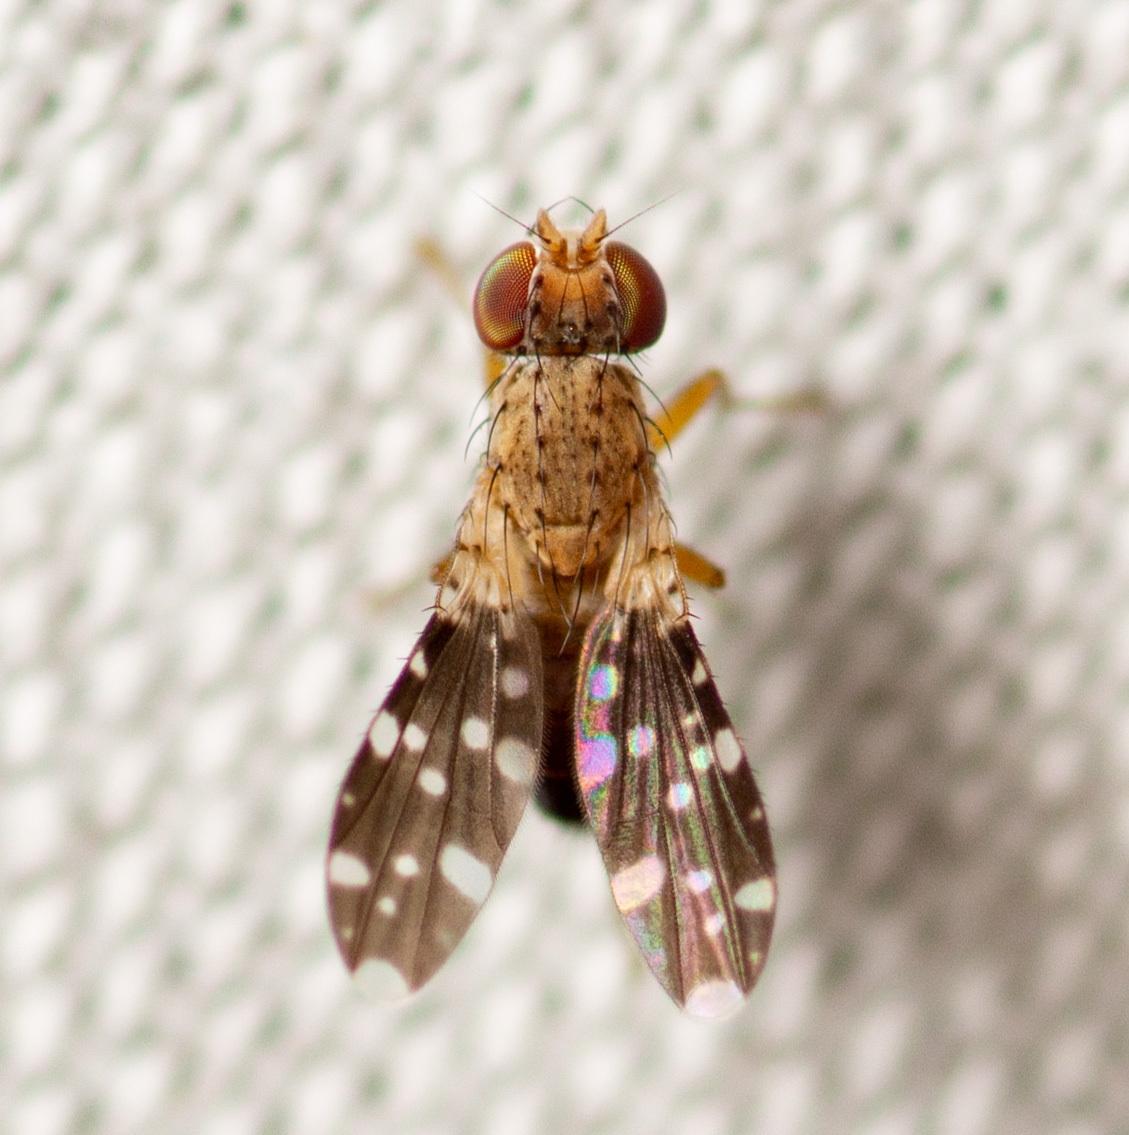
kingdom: Animalia
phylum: Arthropoda
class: Insecta
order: Diptera
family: Heleomyzidae
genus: Trixoscelis
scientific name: Trixoscelis polita
